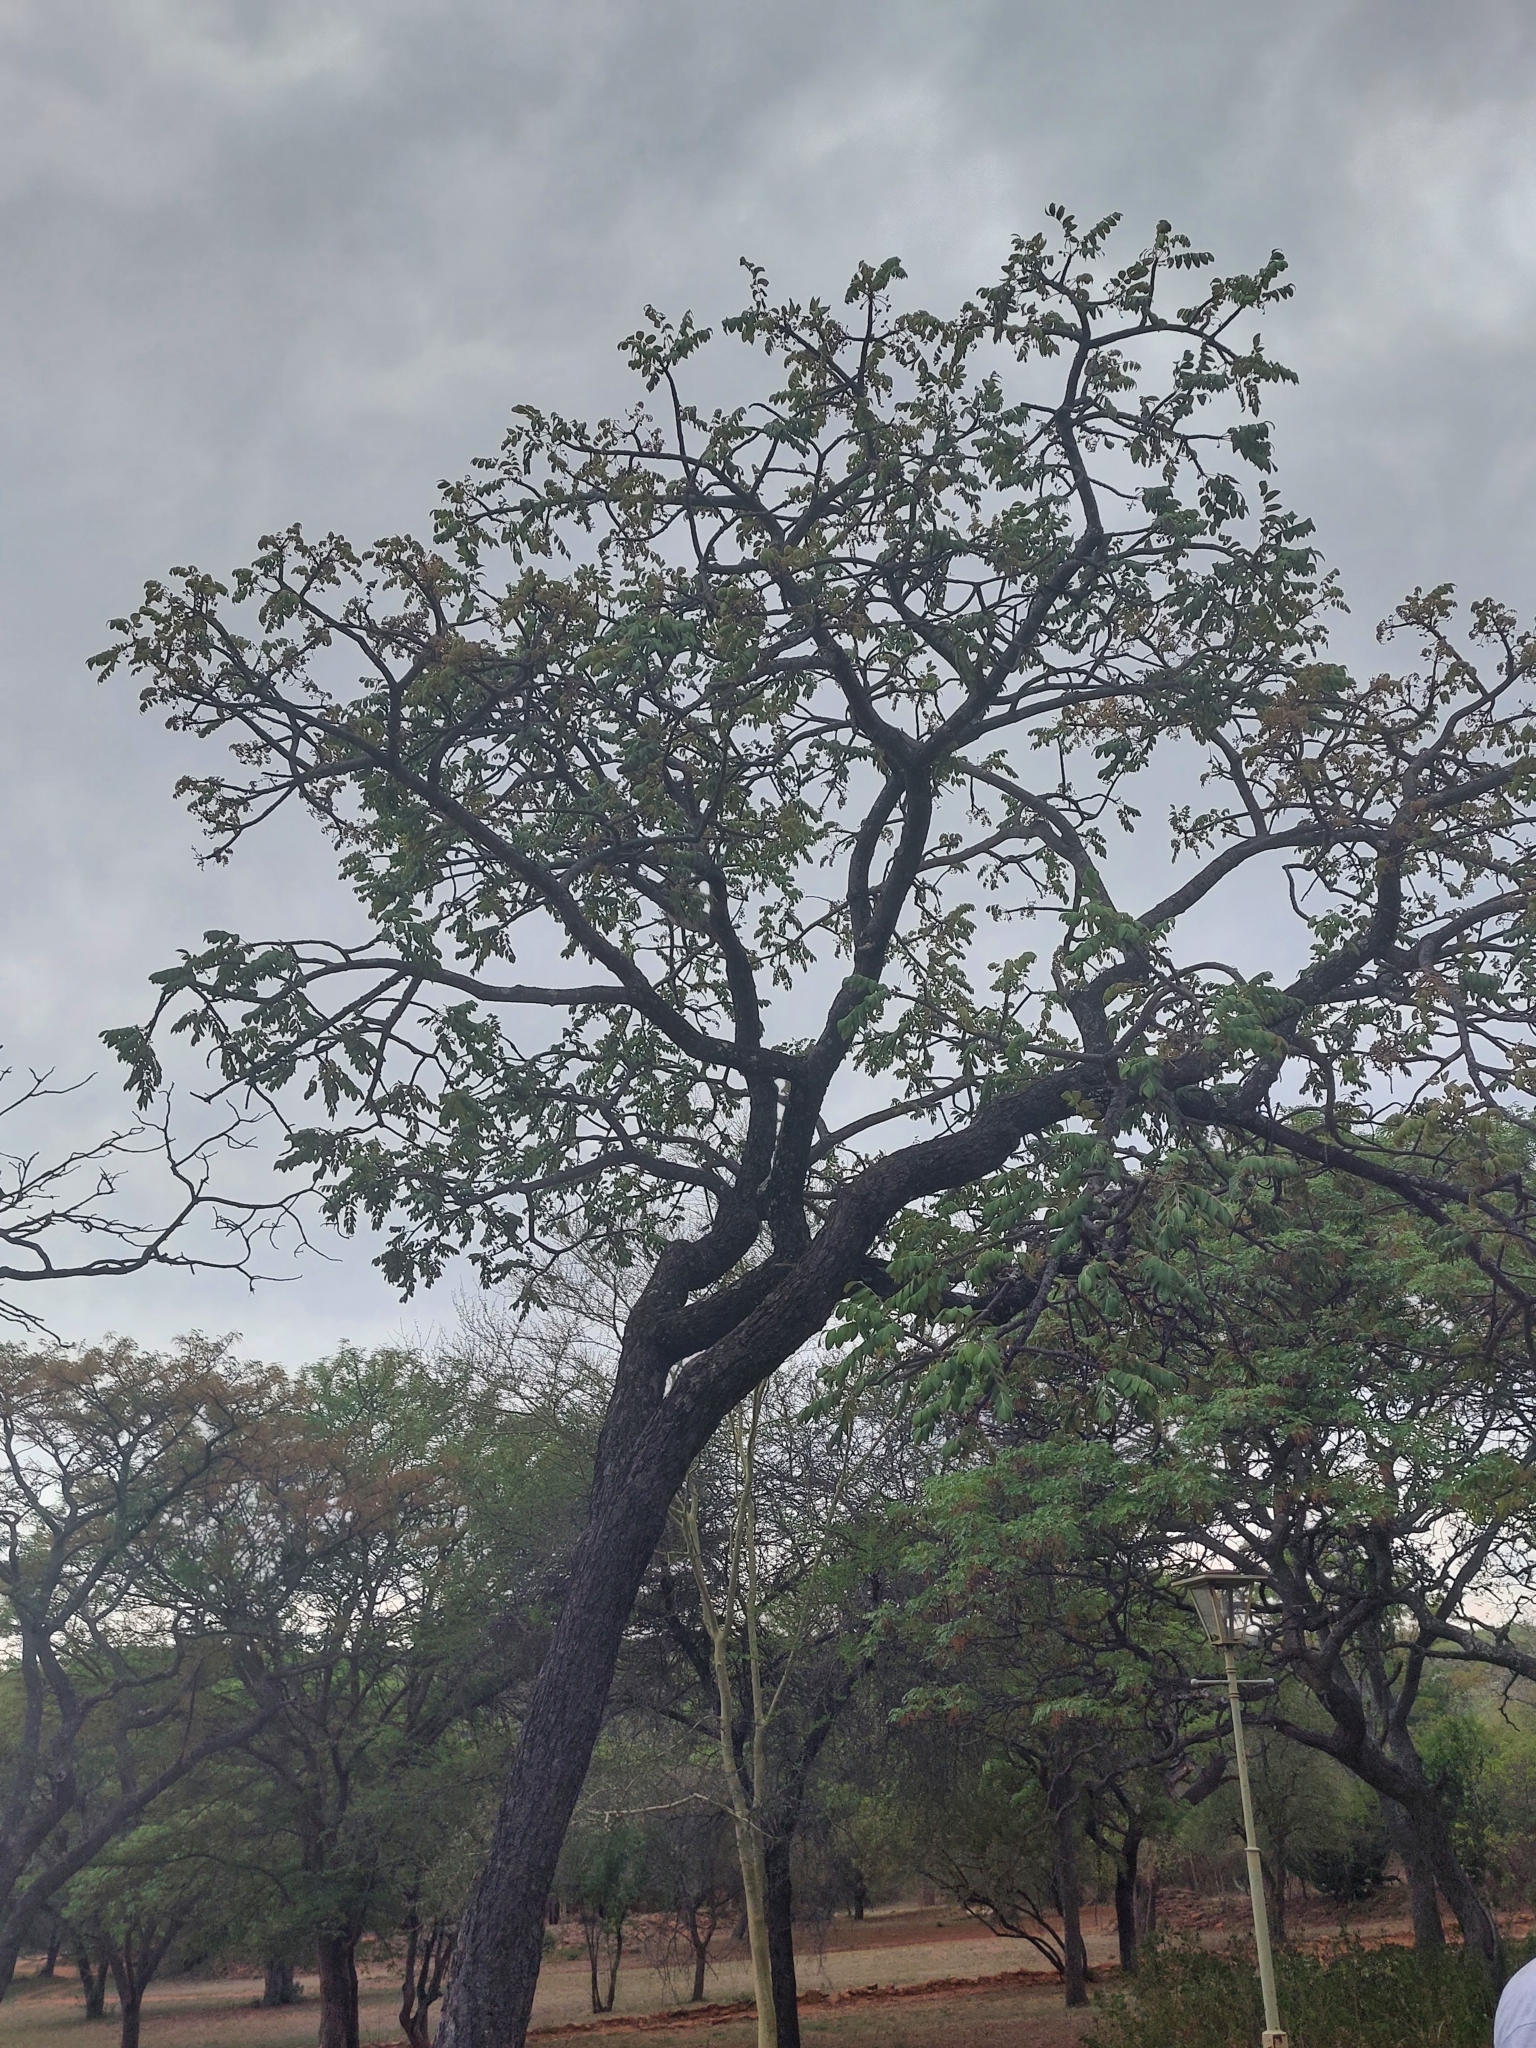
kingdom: Plantae
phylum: Tracheophyta
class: Magnoliopsida
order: Sapindales
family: Anacardiaceae
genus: Lannea
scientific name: Lannea discolor
